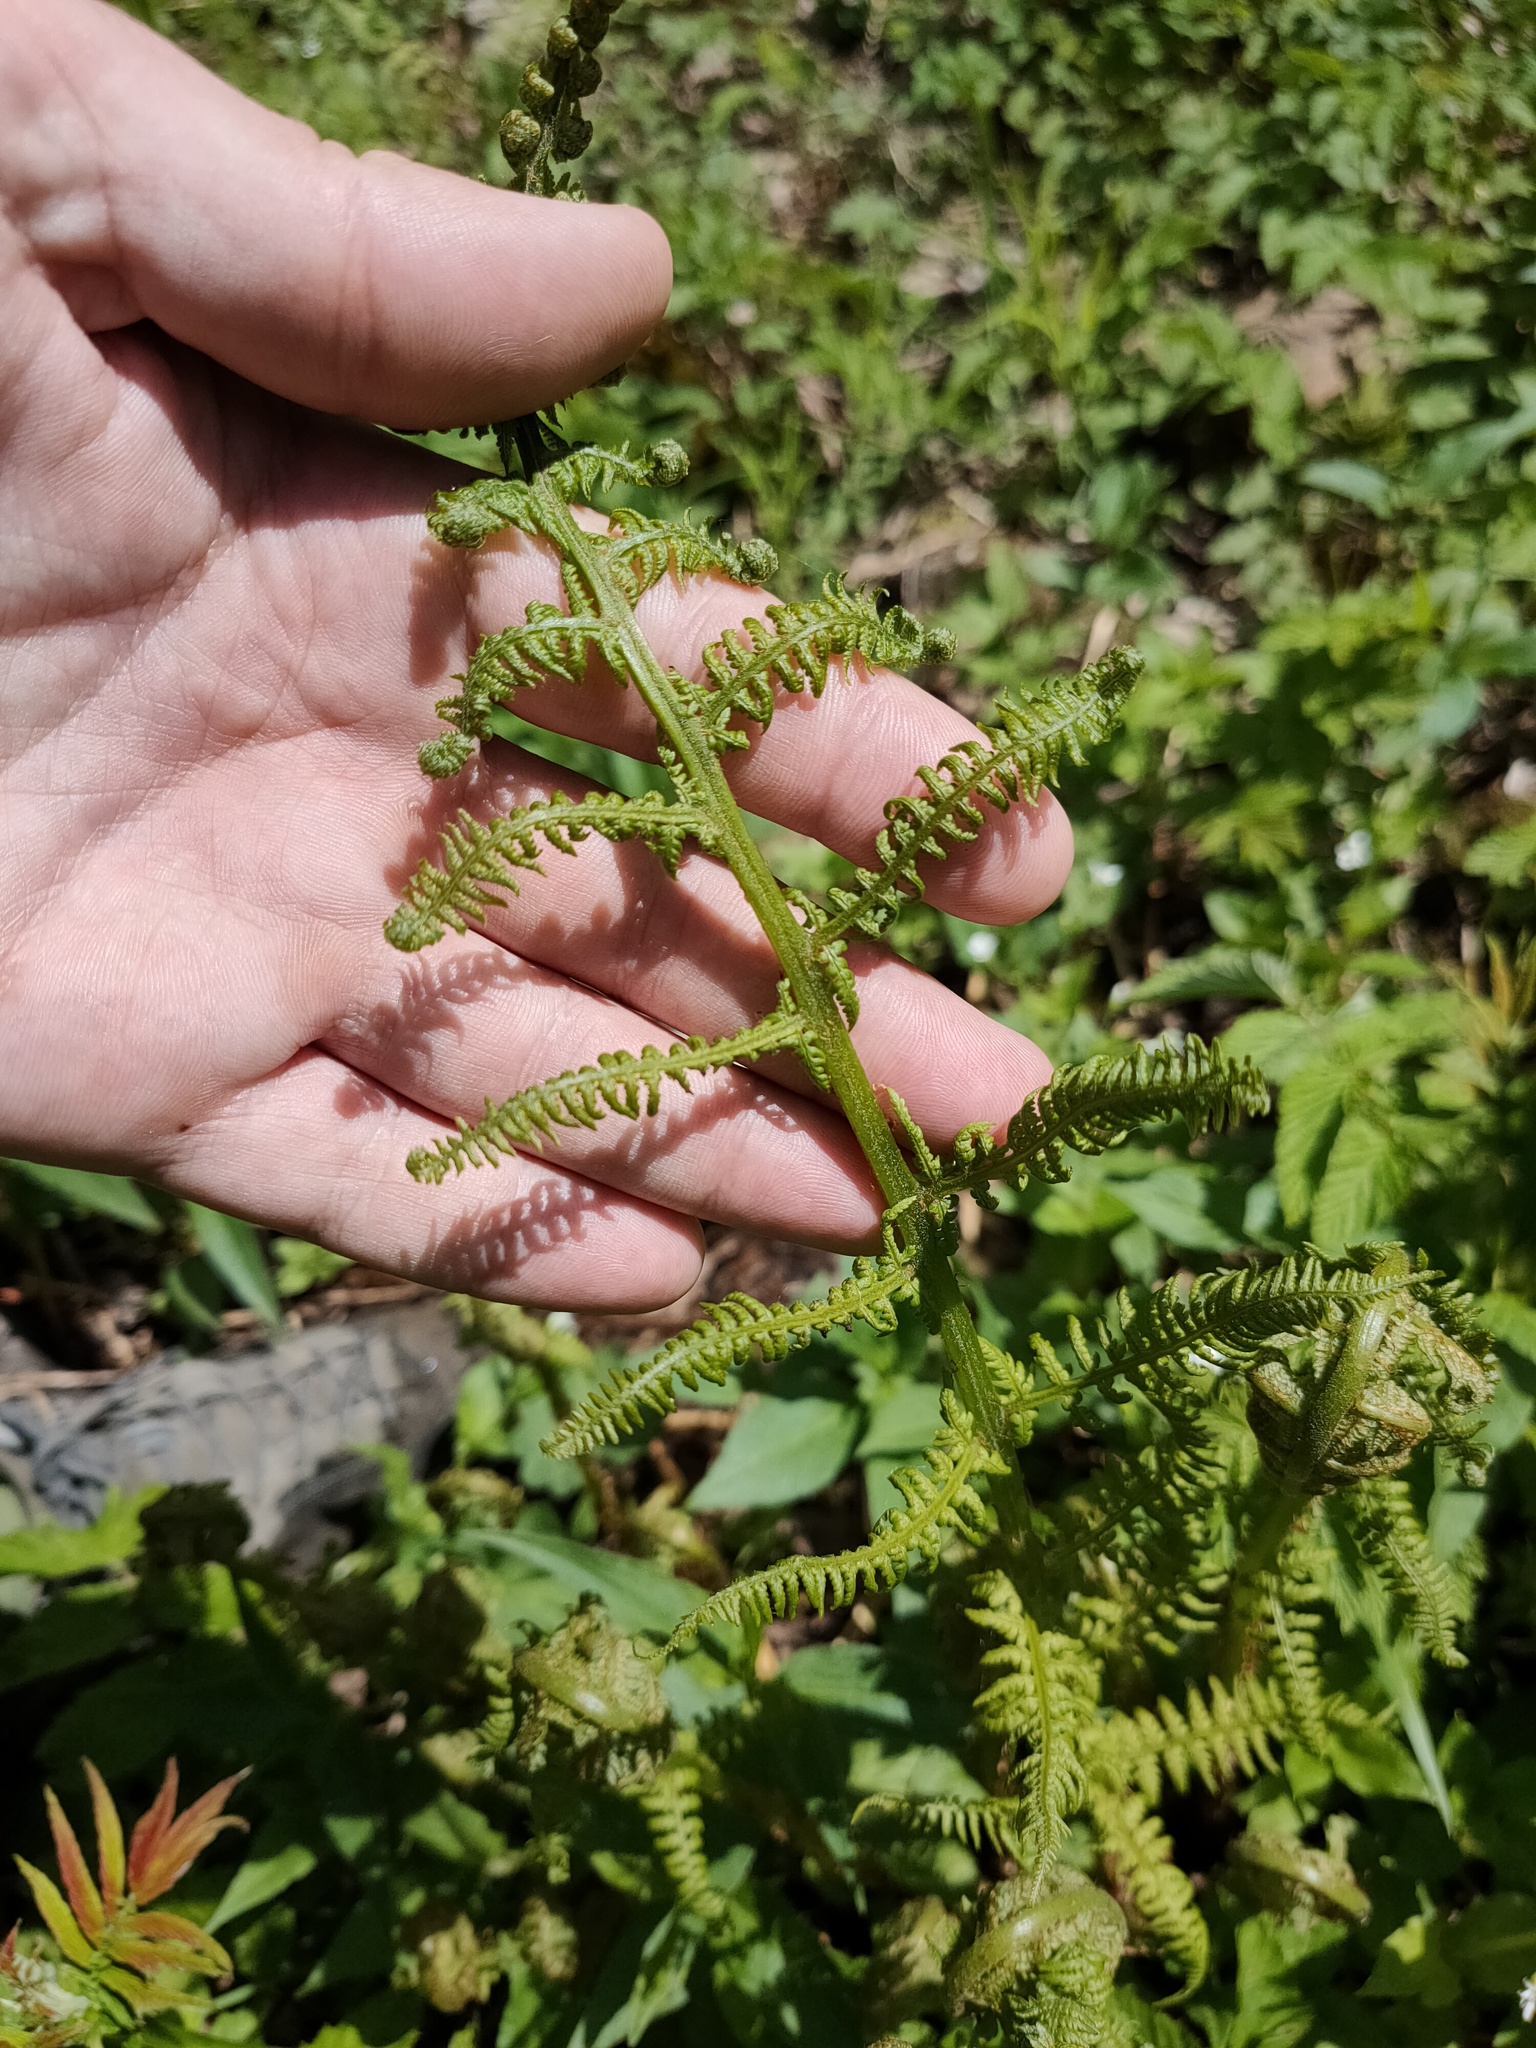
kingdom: Plantae
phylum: Tracheophyta
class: Polypodiopsida
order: Polypodiales
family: Athyriaceae
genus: Athyrium
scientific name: Athyrium filix-femina
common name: Lady fern
